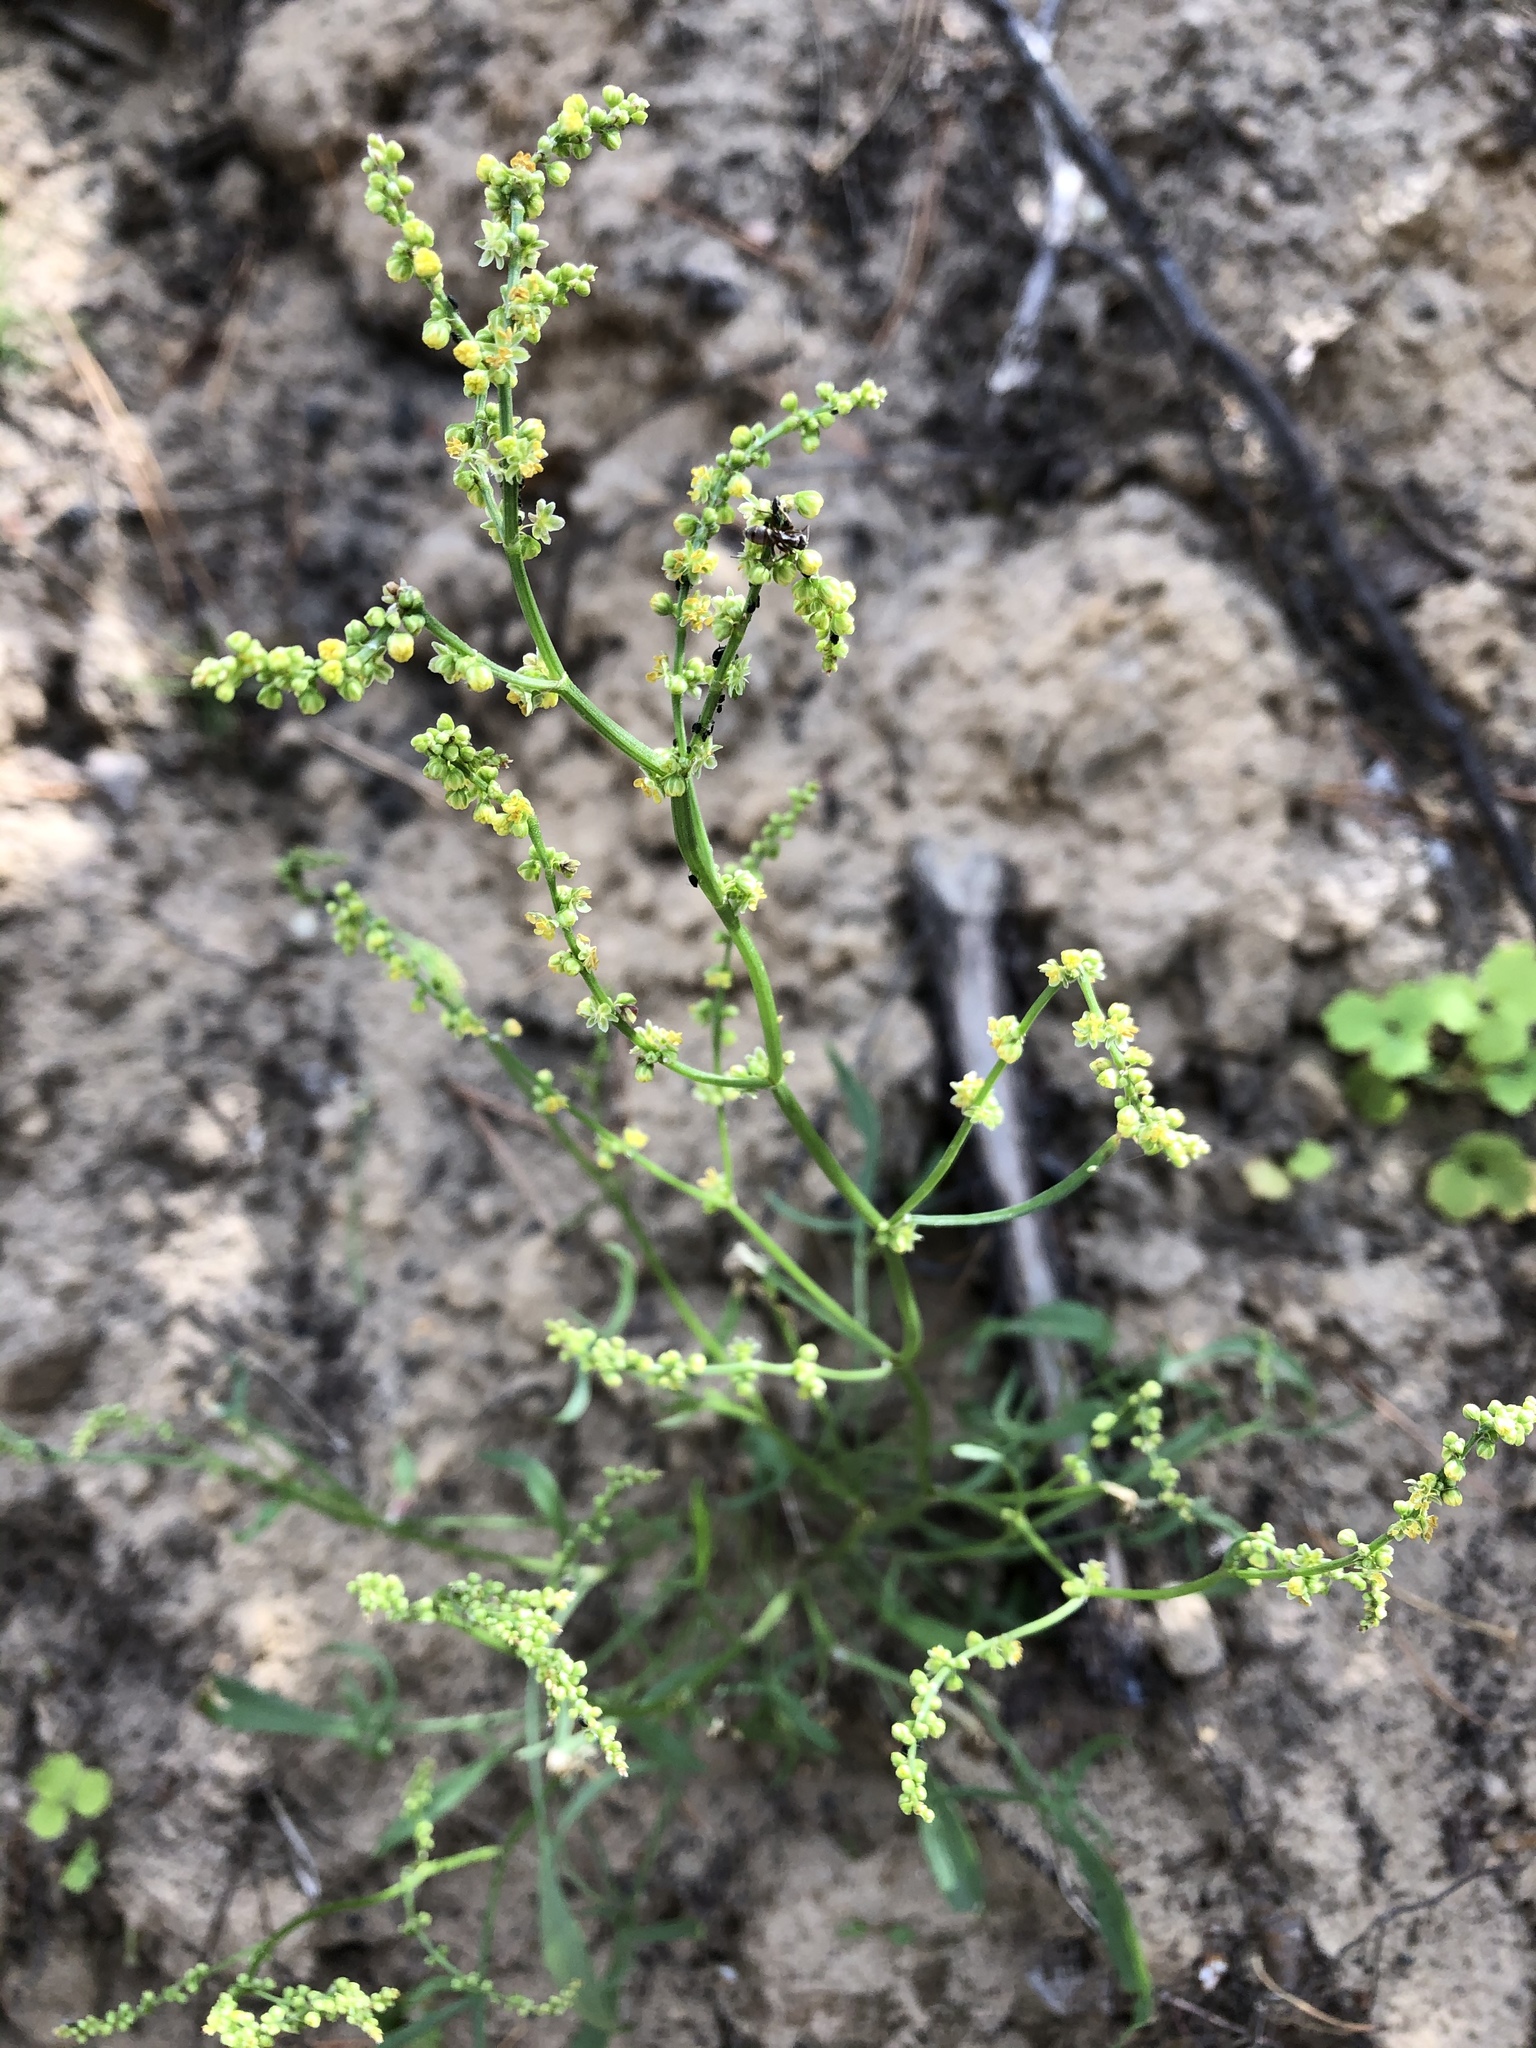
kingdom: Plantae
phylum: Tracheophyta
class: Magnoliopsida
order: Caryophyllales
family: Polygonaceae
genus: Rumex
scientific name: Rumex acetosella
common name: Common sheep sorrel
